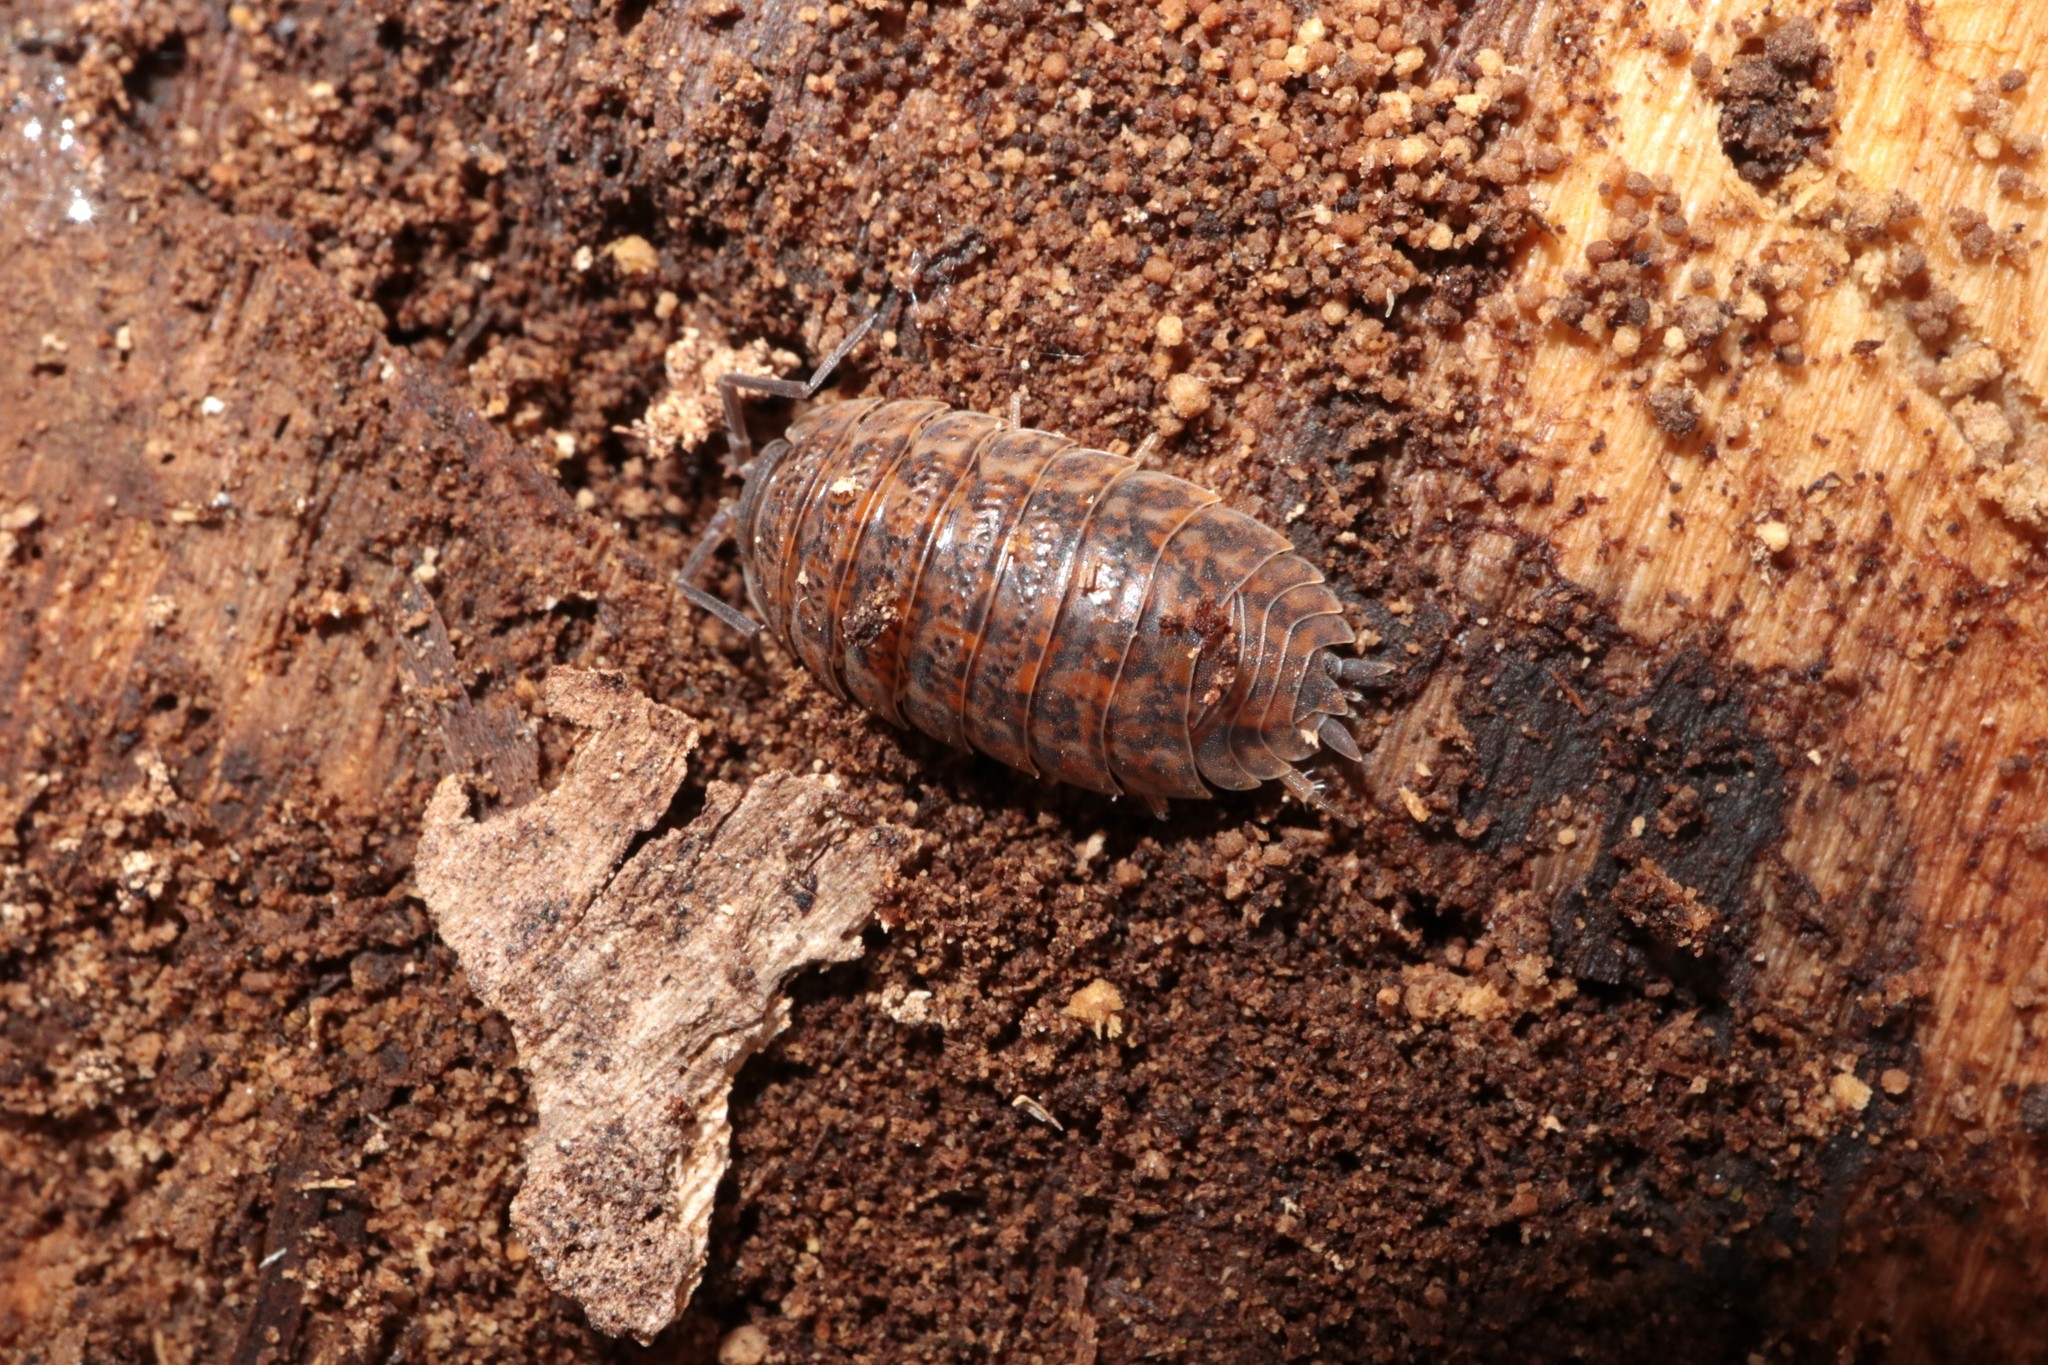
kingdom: Animalia
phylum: Arthropoda
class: Malacostraca
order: Isopoda
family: Trachelipodidae
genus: Trachelipus
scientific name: Trachelipus rathkii
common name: Isopod
